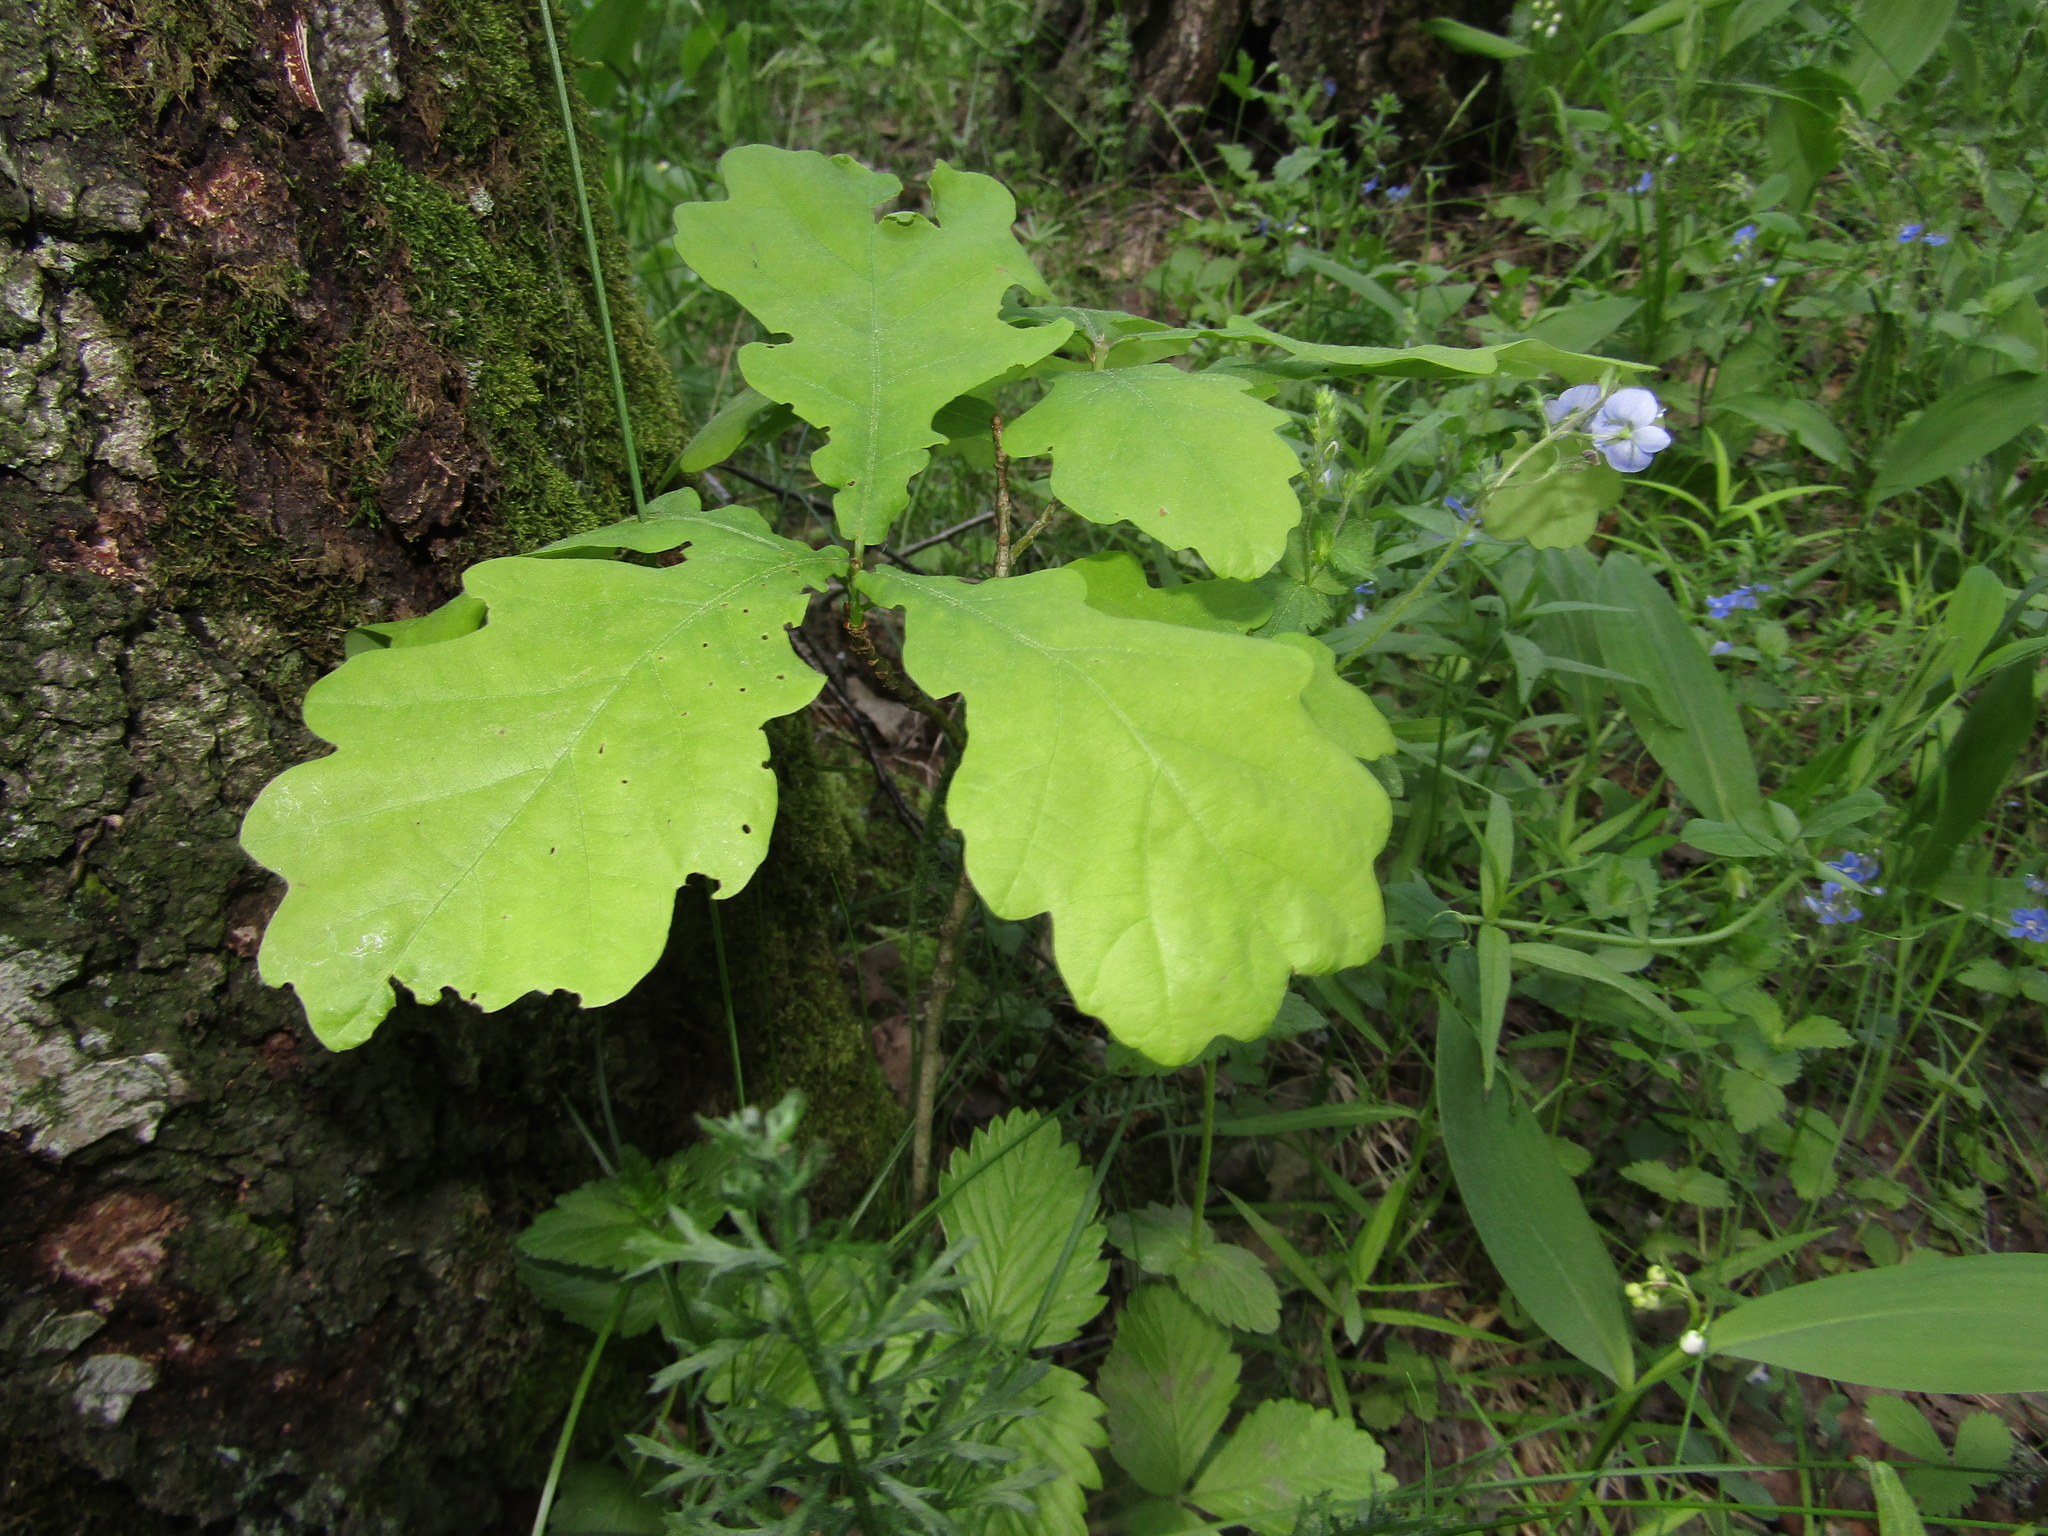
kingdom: Plantae
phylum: Tracheophyta
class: Magnoliopsida
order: Fagales
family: Fagaceae
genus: Quercus
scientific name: Quercus robur
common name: Pedunculate oak
